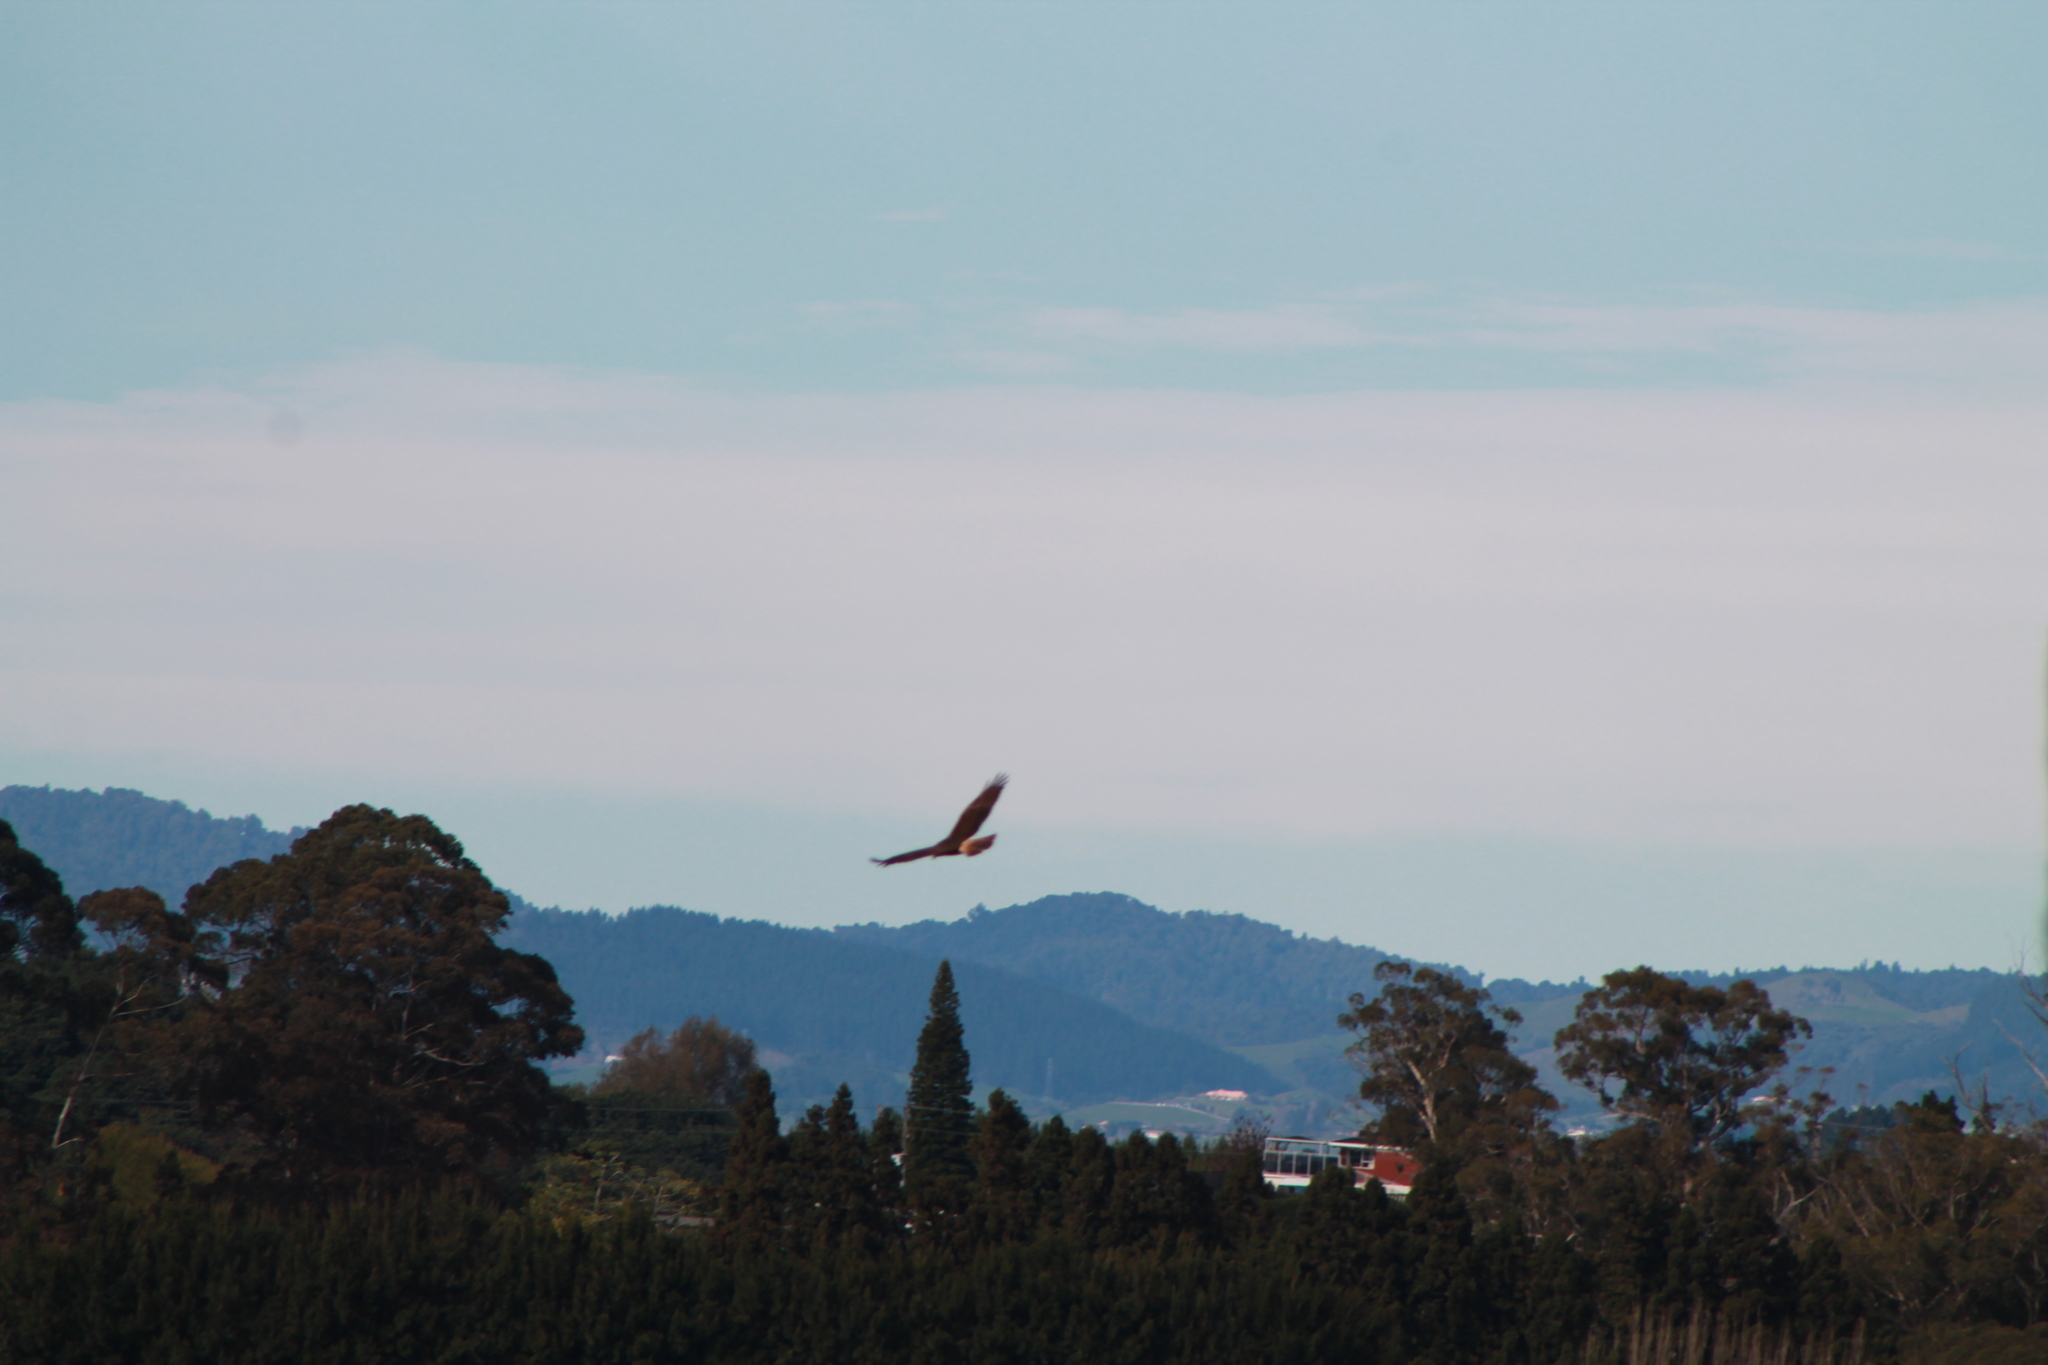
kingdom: Animalia
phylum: Chordata
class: Aves
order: Accipitriformes
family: Accipitridae
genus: Circus
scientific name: Circus approximans
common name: Swamp harrier
